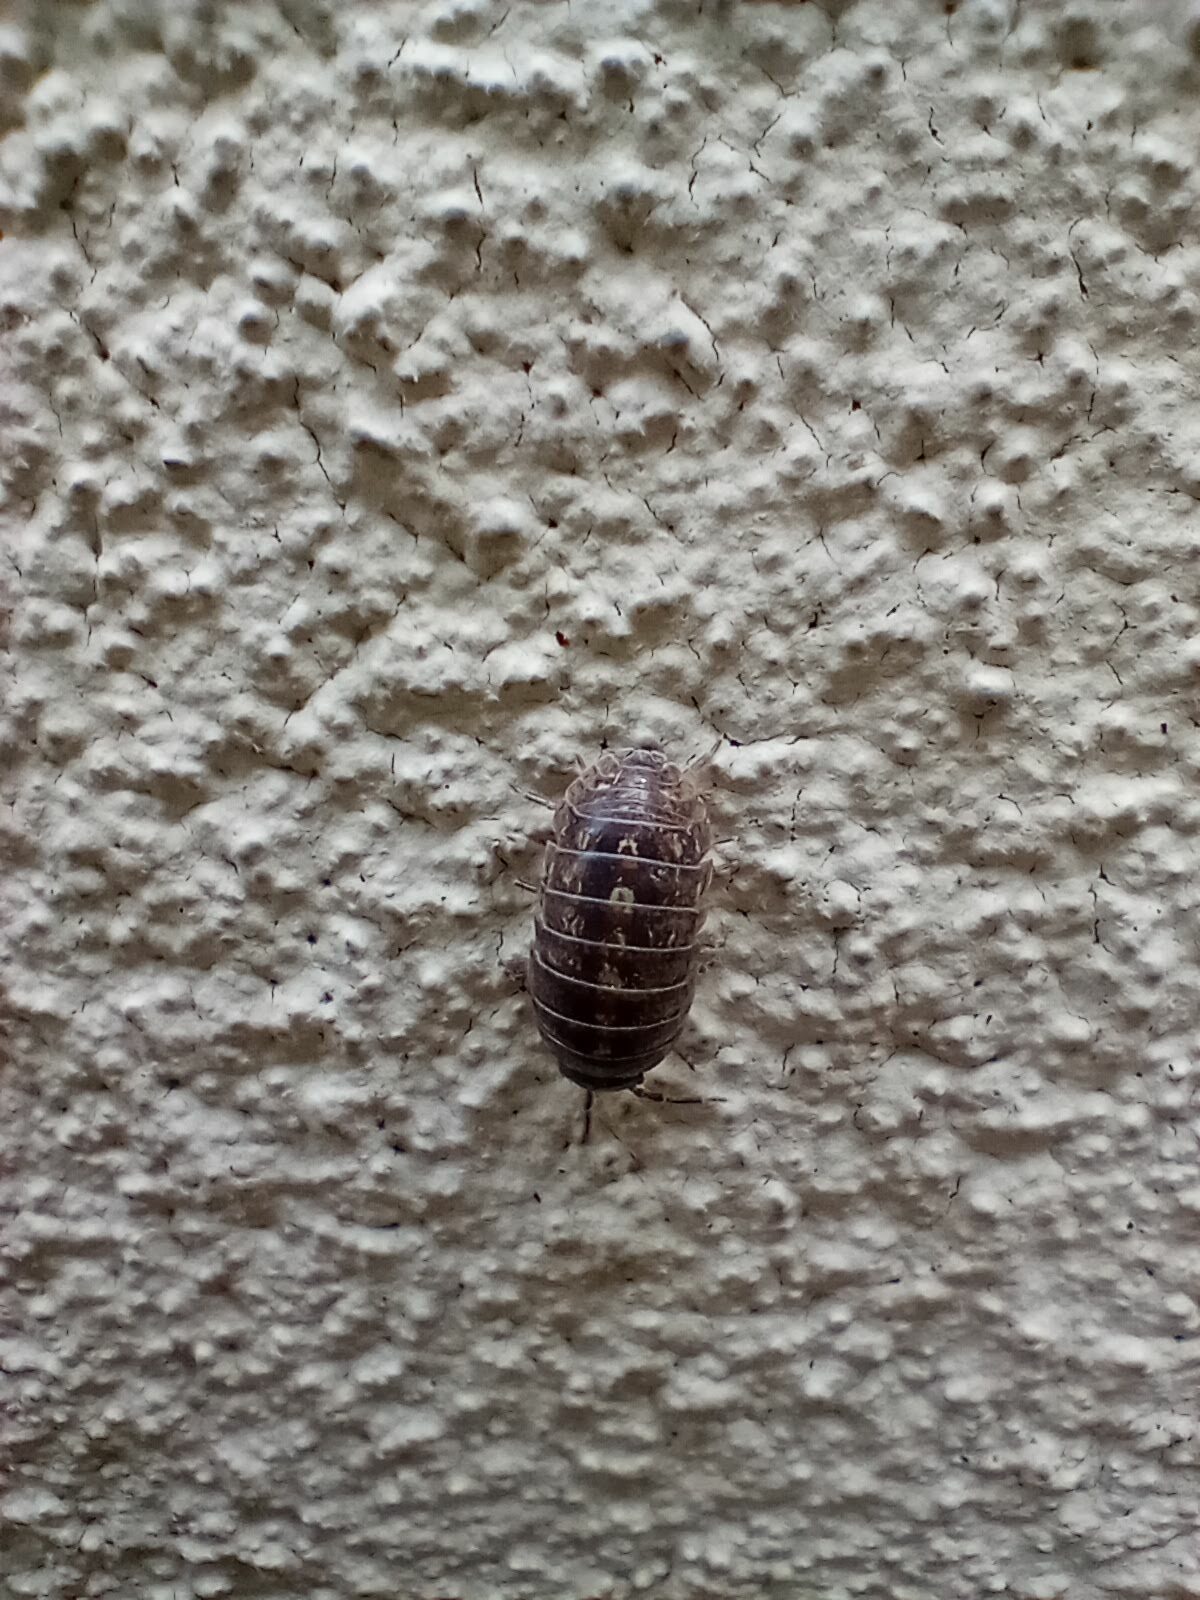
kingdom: Animalia
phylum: Arthropoda
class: Malacostraca
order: Isopoda
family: Armadillidiidae
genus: Armadillidium
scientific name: Armadillidium vulgare
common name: Common pill woodlouse
